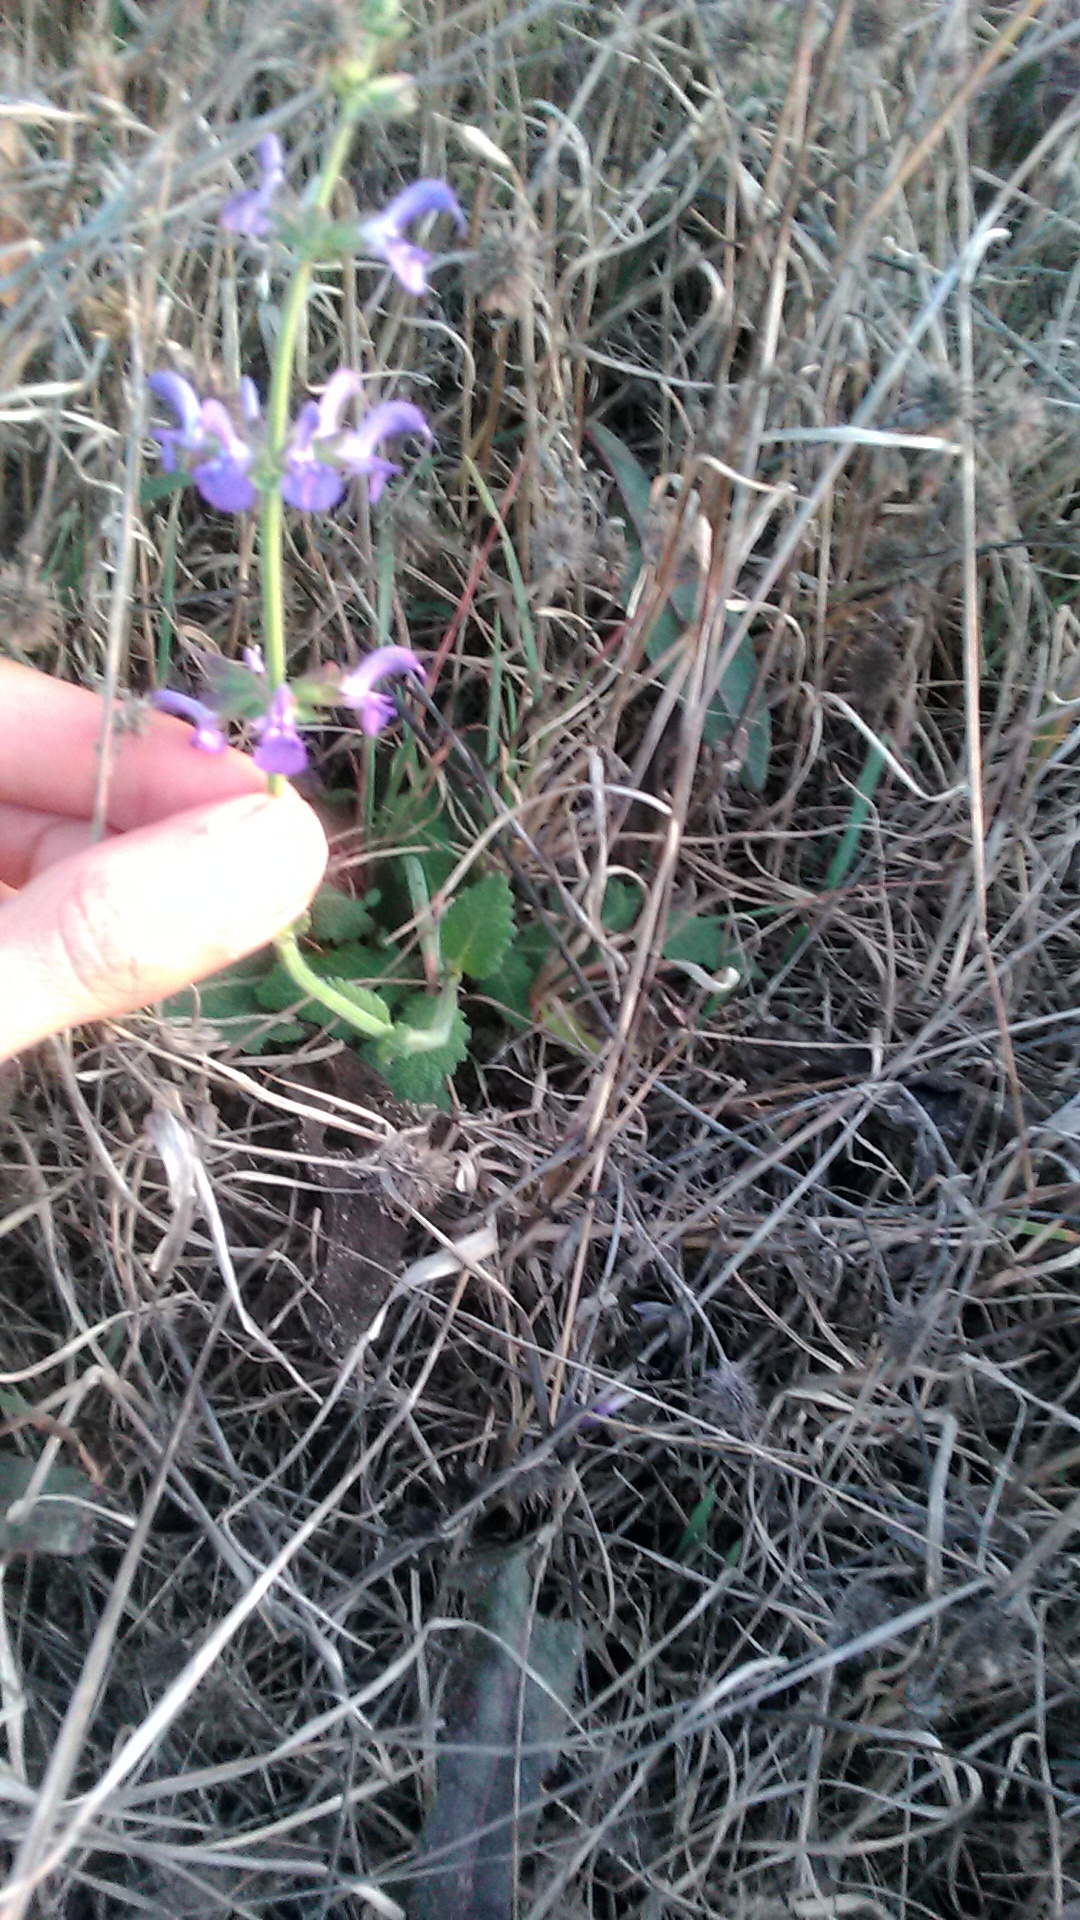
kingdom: Plantae
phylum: Tracheophyta
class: Magnoliopsida
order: Lamiales
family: Lamiaceae
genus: Salvia
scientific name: Salvia pratensis
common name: Meadow sage
